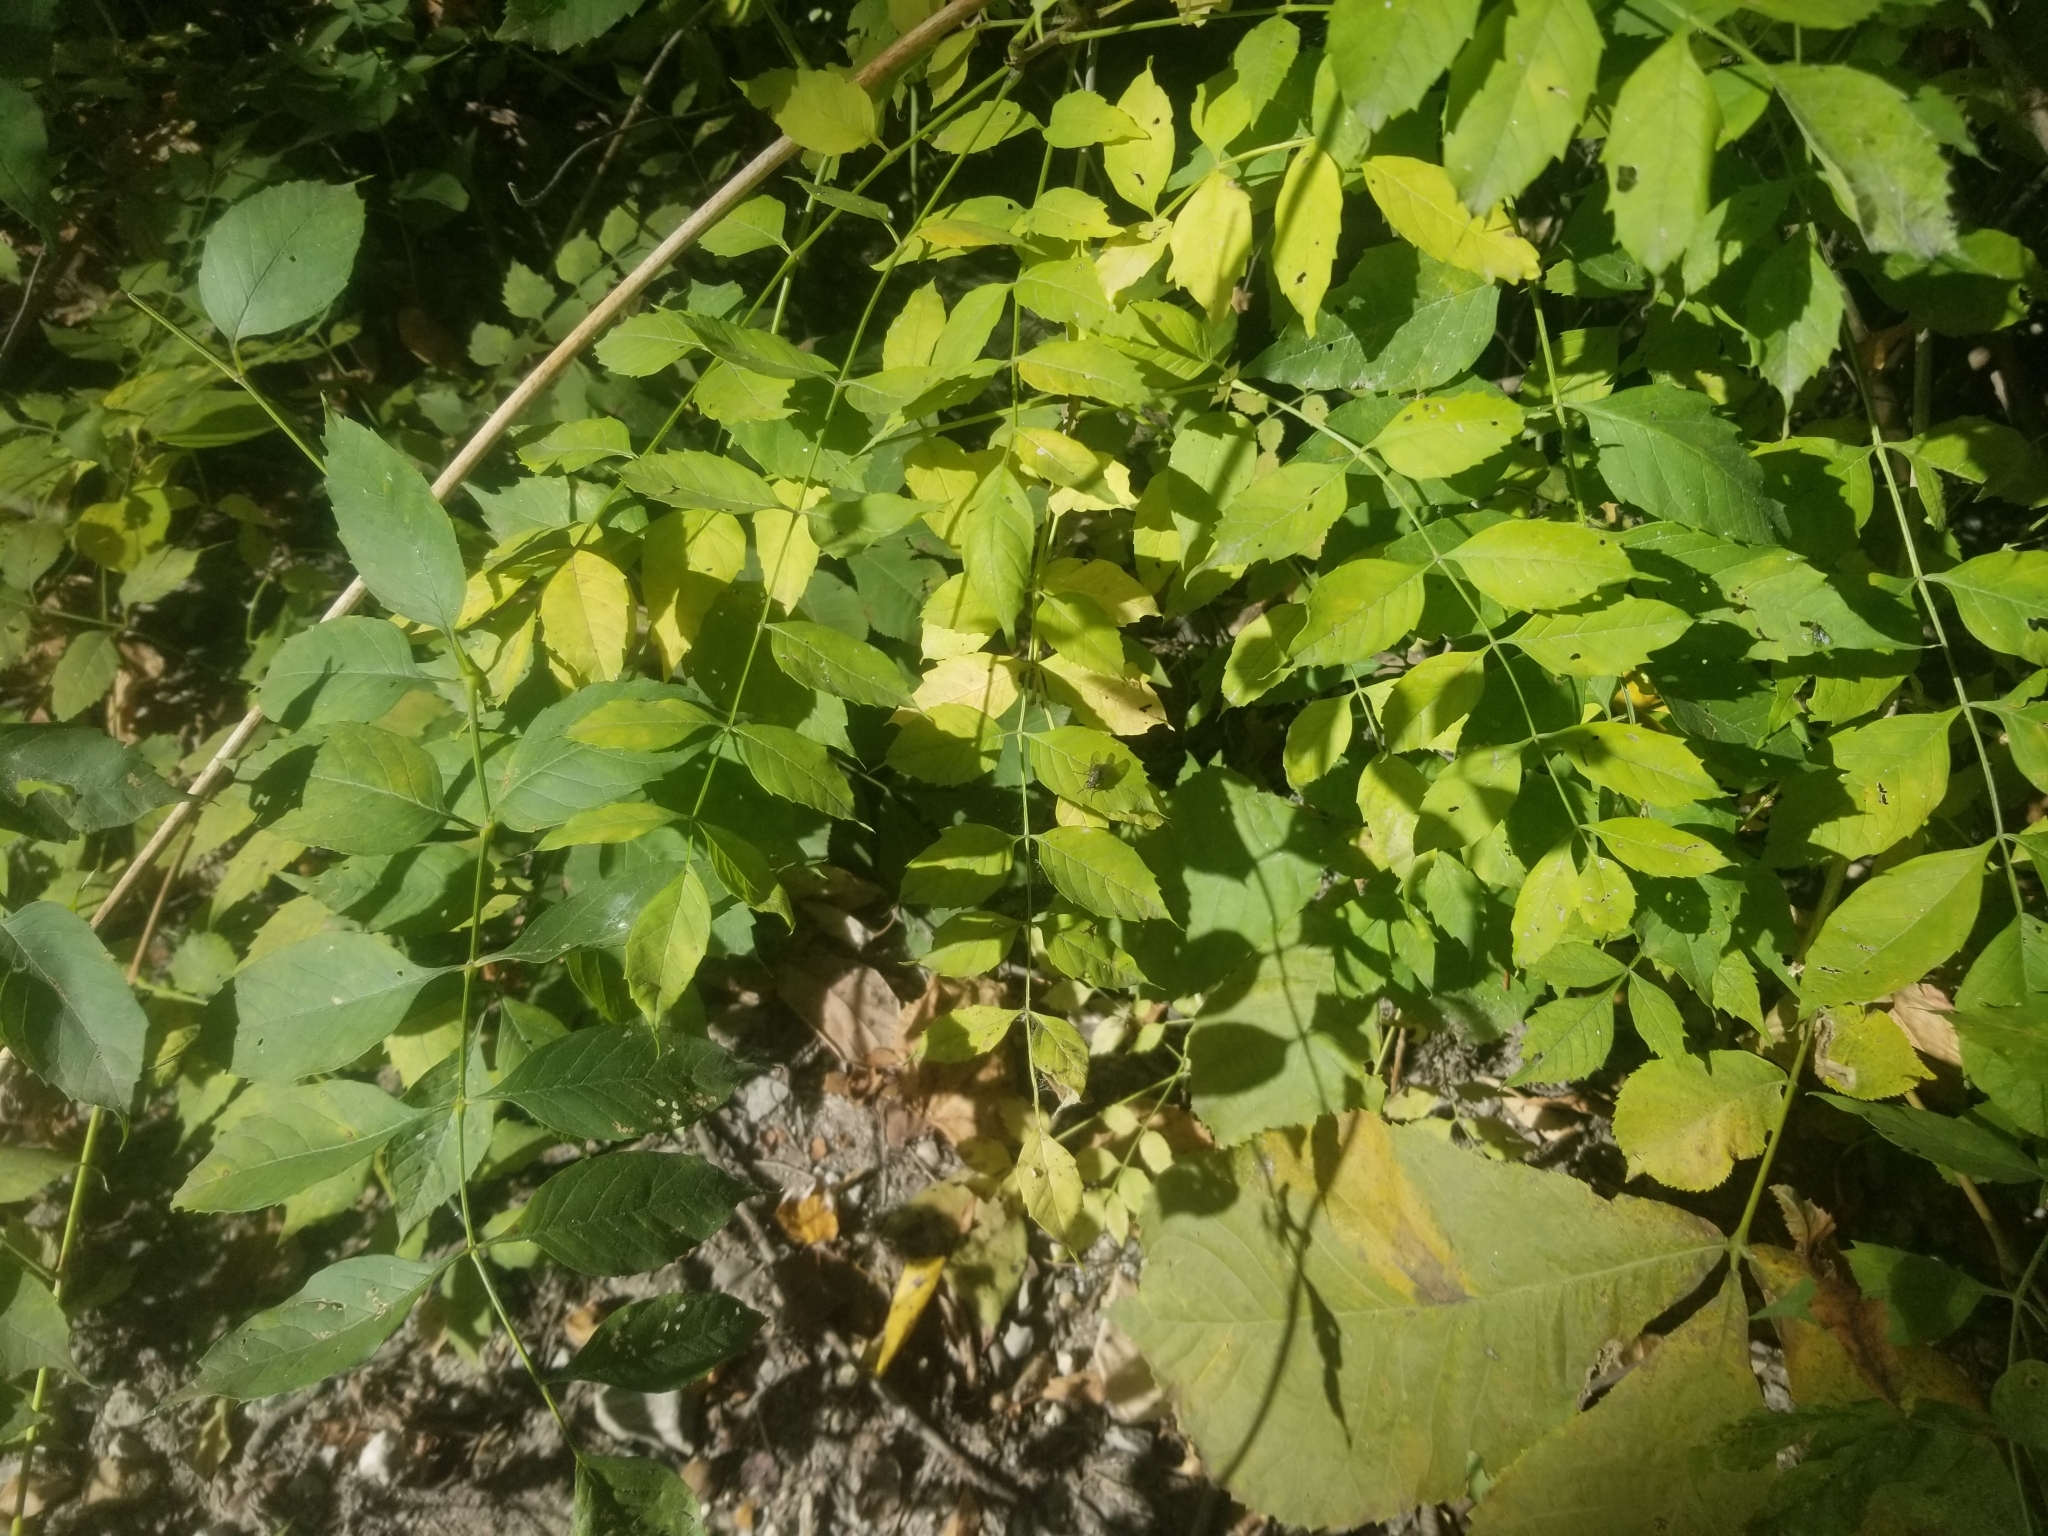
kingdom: Plantae
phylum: Tracheophyta
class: Magnoliopsida
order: Lamiales
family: Bignoniaceae
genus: Campsis
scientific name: Campsis radicans
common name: Trumpet-creeper
